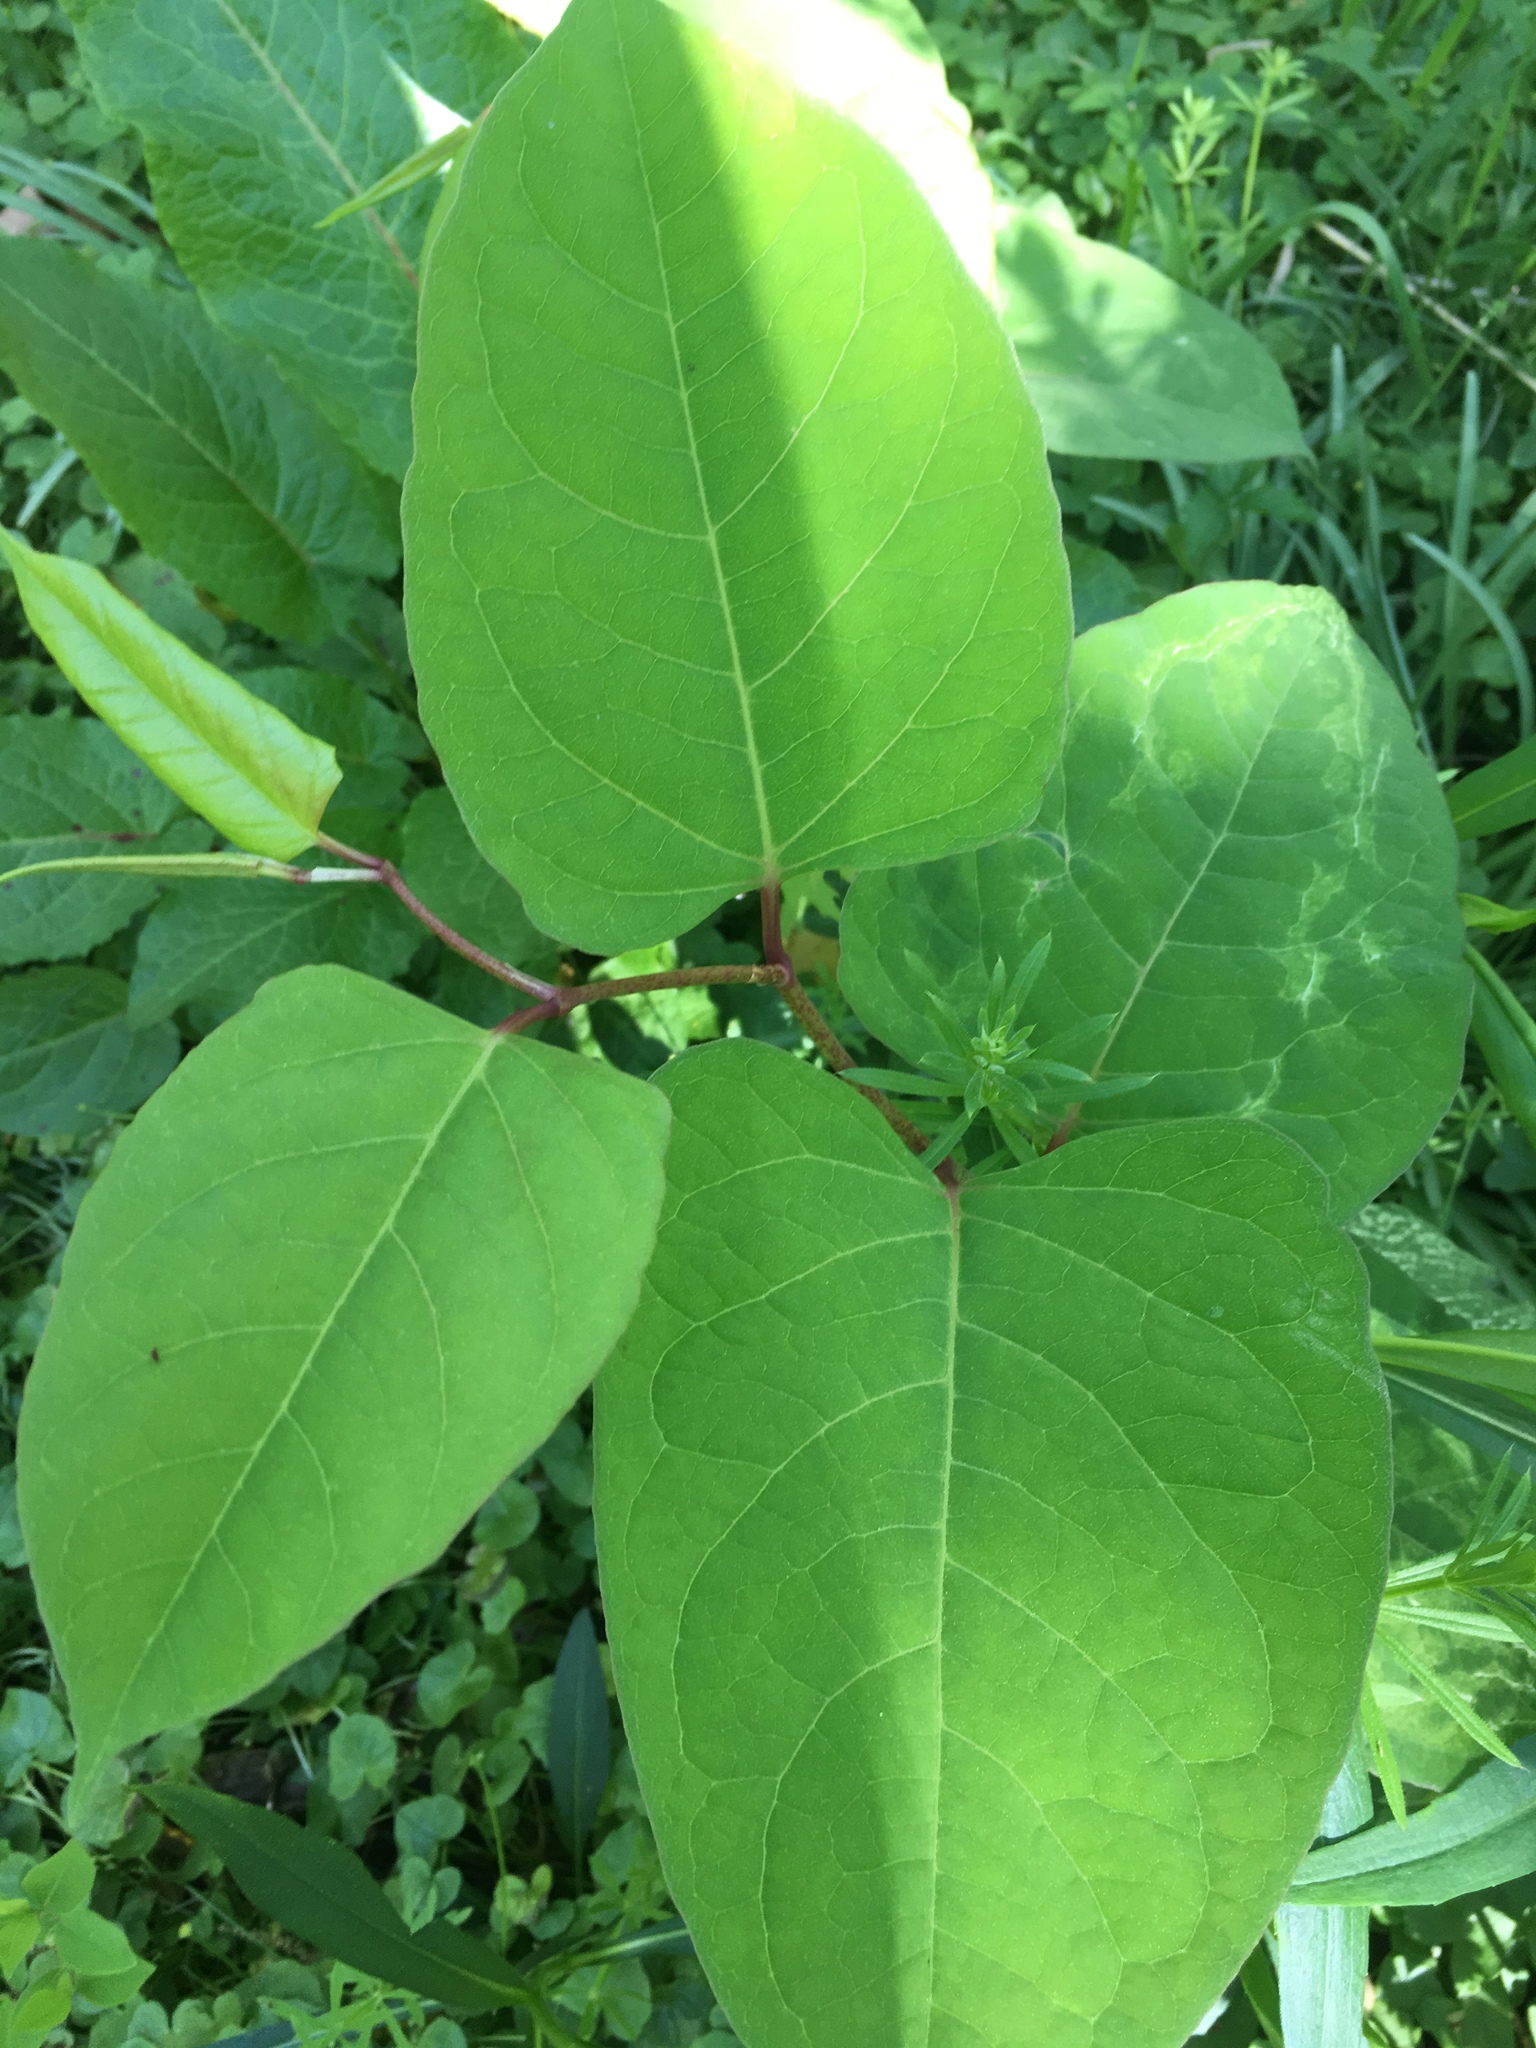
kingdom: Plantae
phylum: Tracheophyta
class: Magnoliopsida
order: Caryophyllales
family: Polygonaceae
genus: Reynoutria
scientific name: Reynoutria japonica
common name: Japanese knotweed
